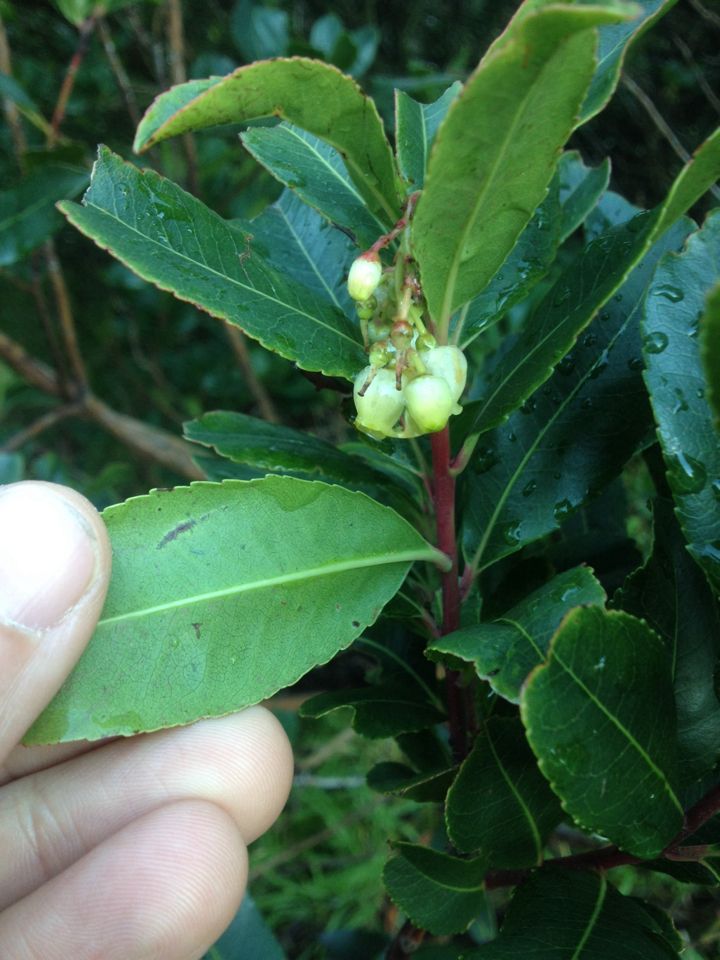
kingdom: Plantae
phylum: Tracheophyta
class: Magnoliopsida
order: Ericales
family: Ericaceae
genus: Arbutus
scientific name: Arbutus unedo
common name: Strawberry-tree
